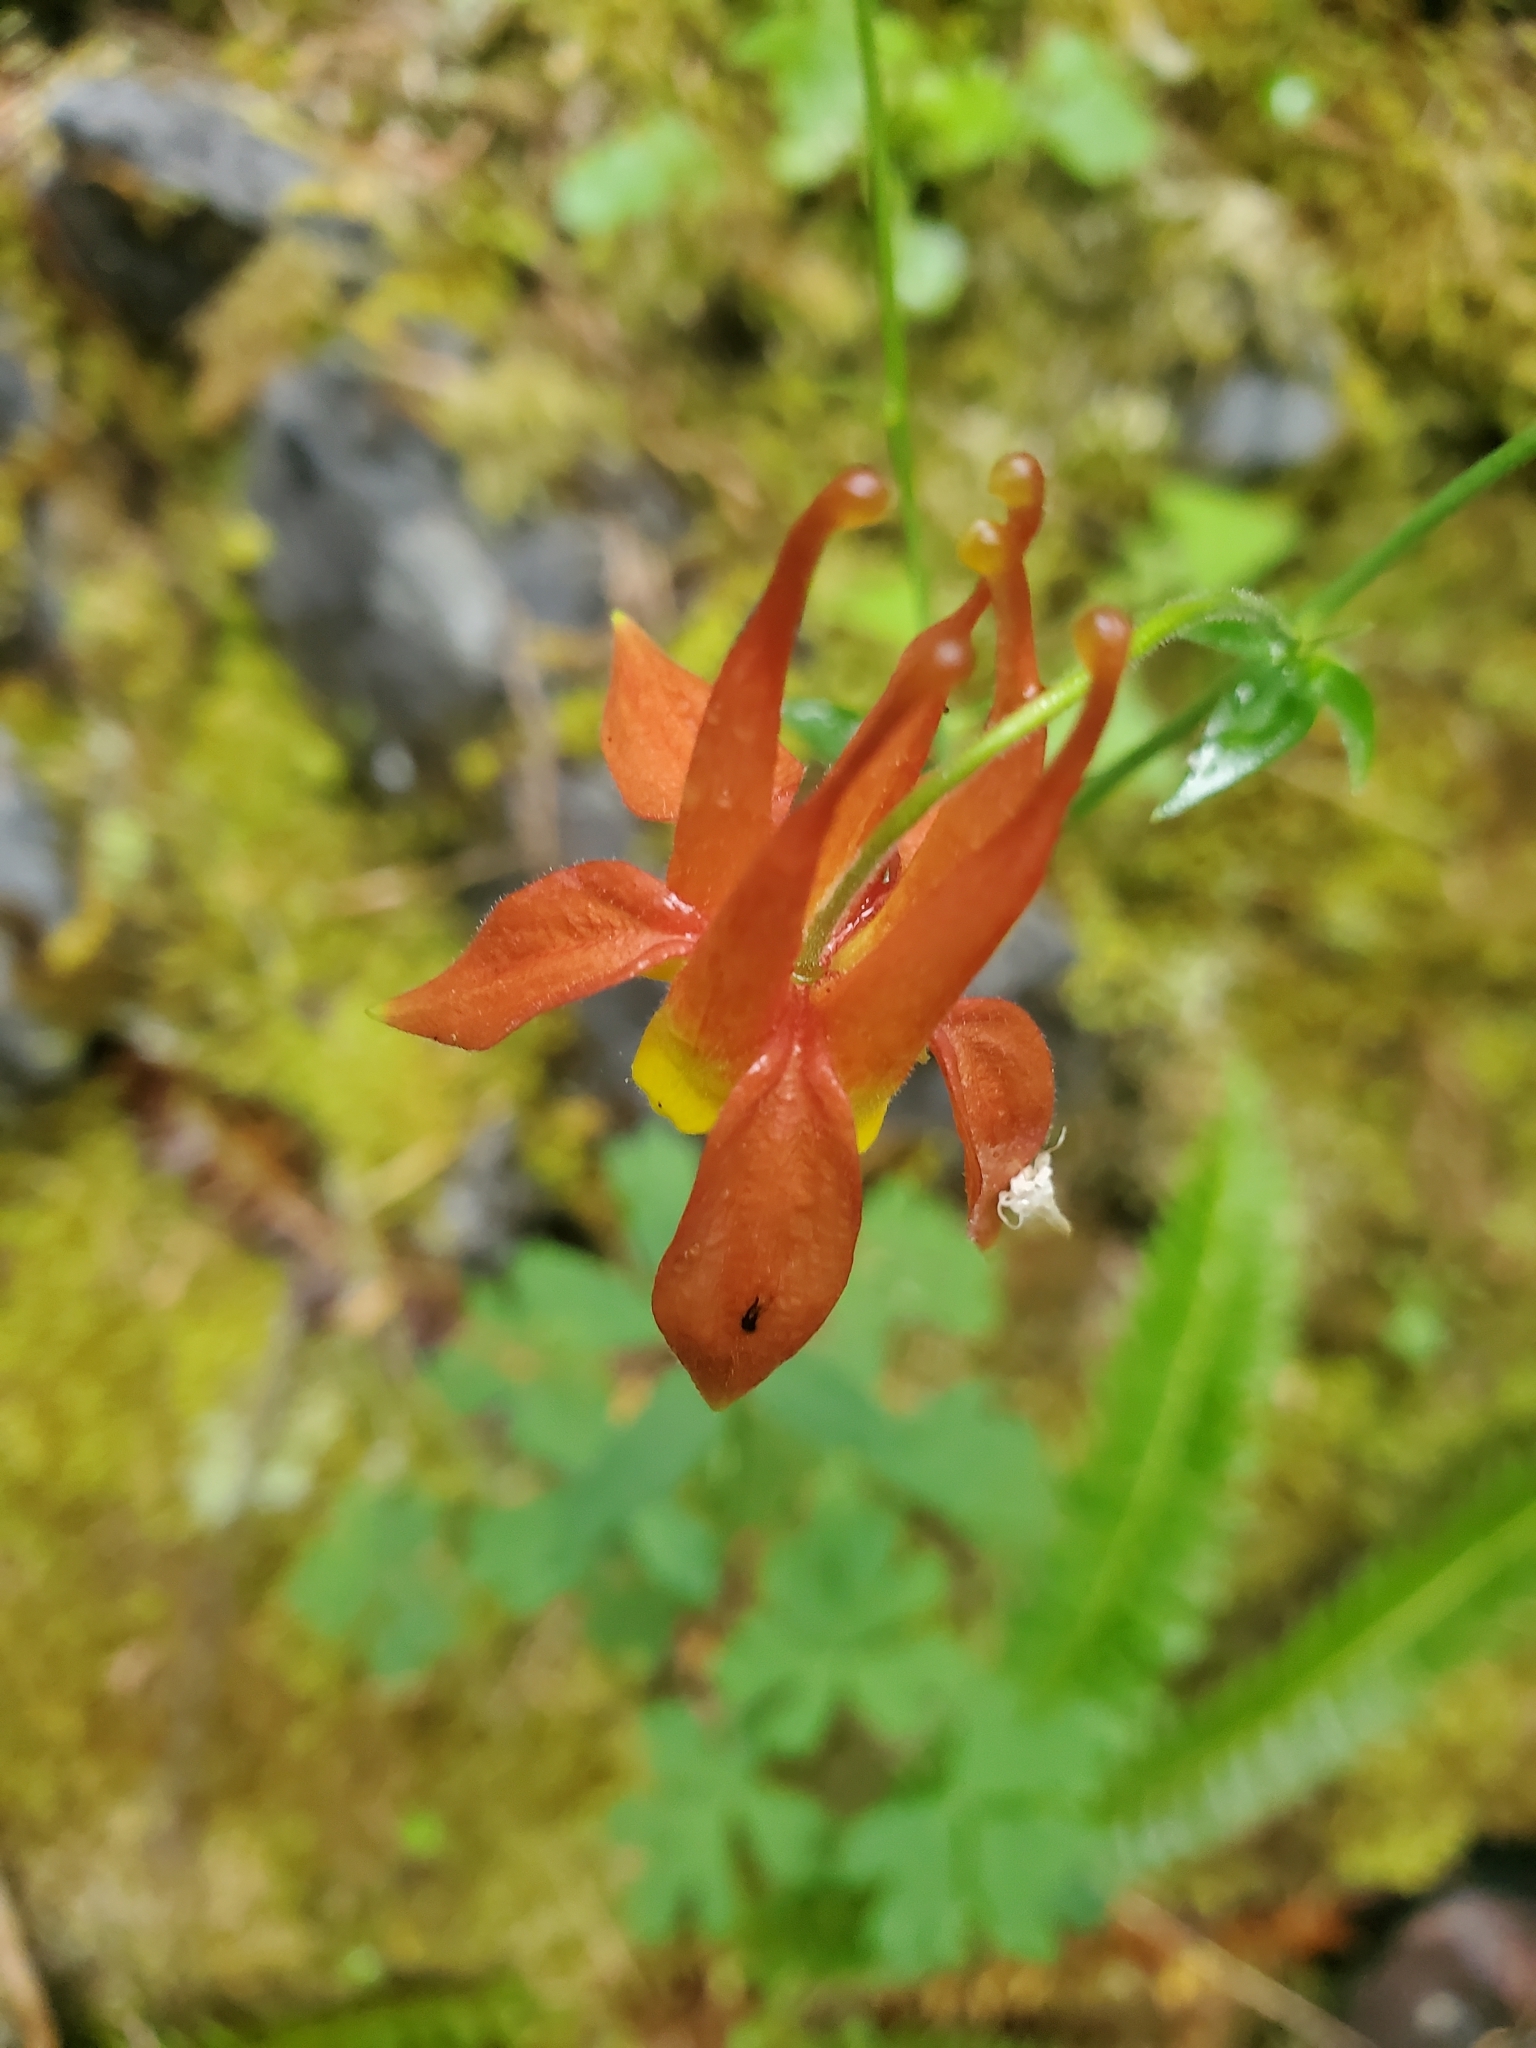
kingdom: Plantae
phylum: Tracheophyta
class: Magnoliopsida
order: Ranunculales
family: Ranunculaceae
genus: Aquilegia
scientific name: Aquilegia formosa
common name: Sitka columbine
